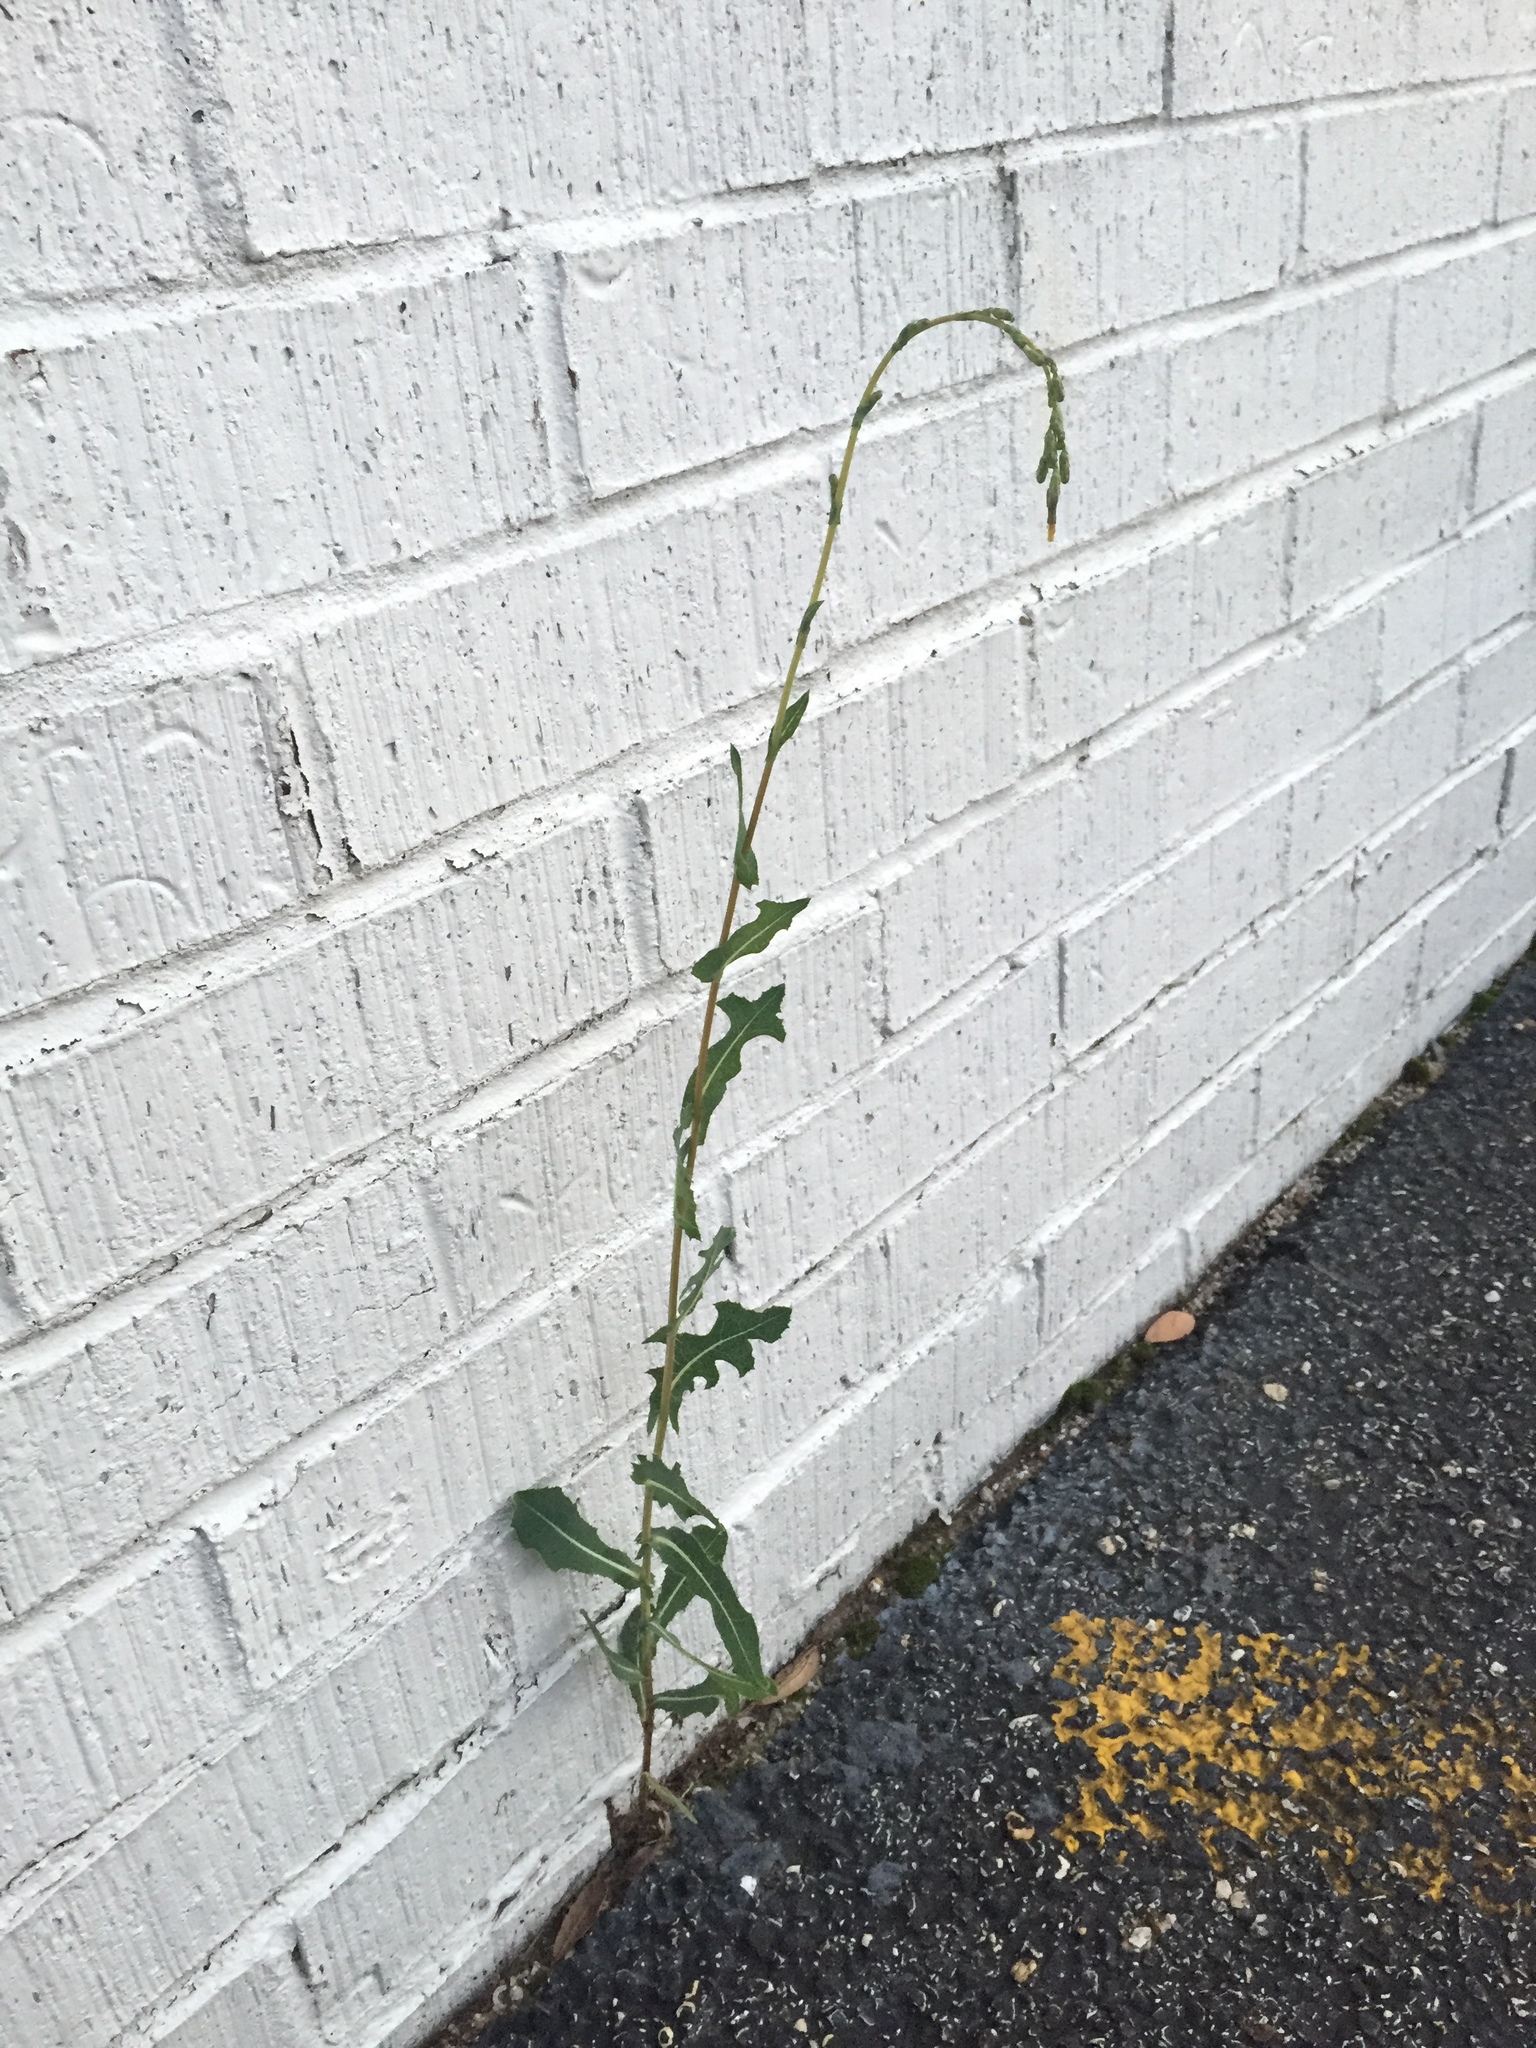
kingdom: Plantae
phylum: Tracheophyta
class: Magnoliopsida
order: Asterales
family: Asteraceae
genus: Lactuca
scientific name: Lactuca serriola
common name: Prickly lettuce
